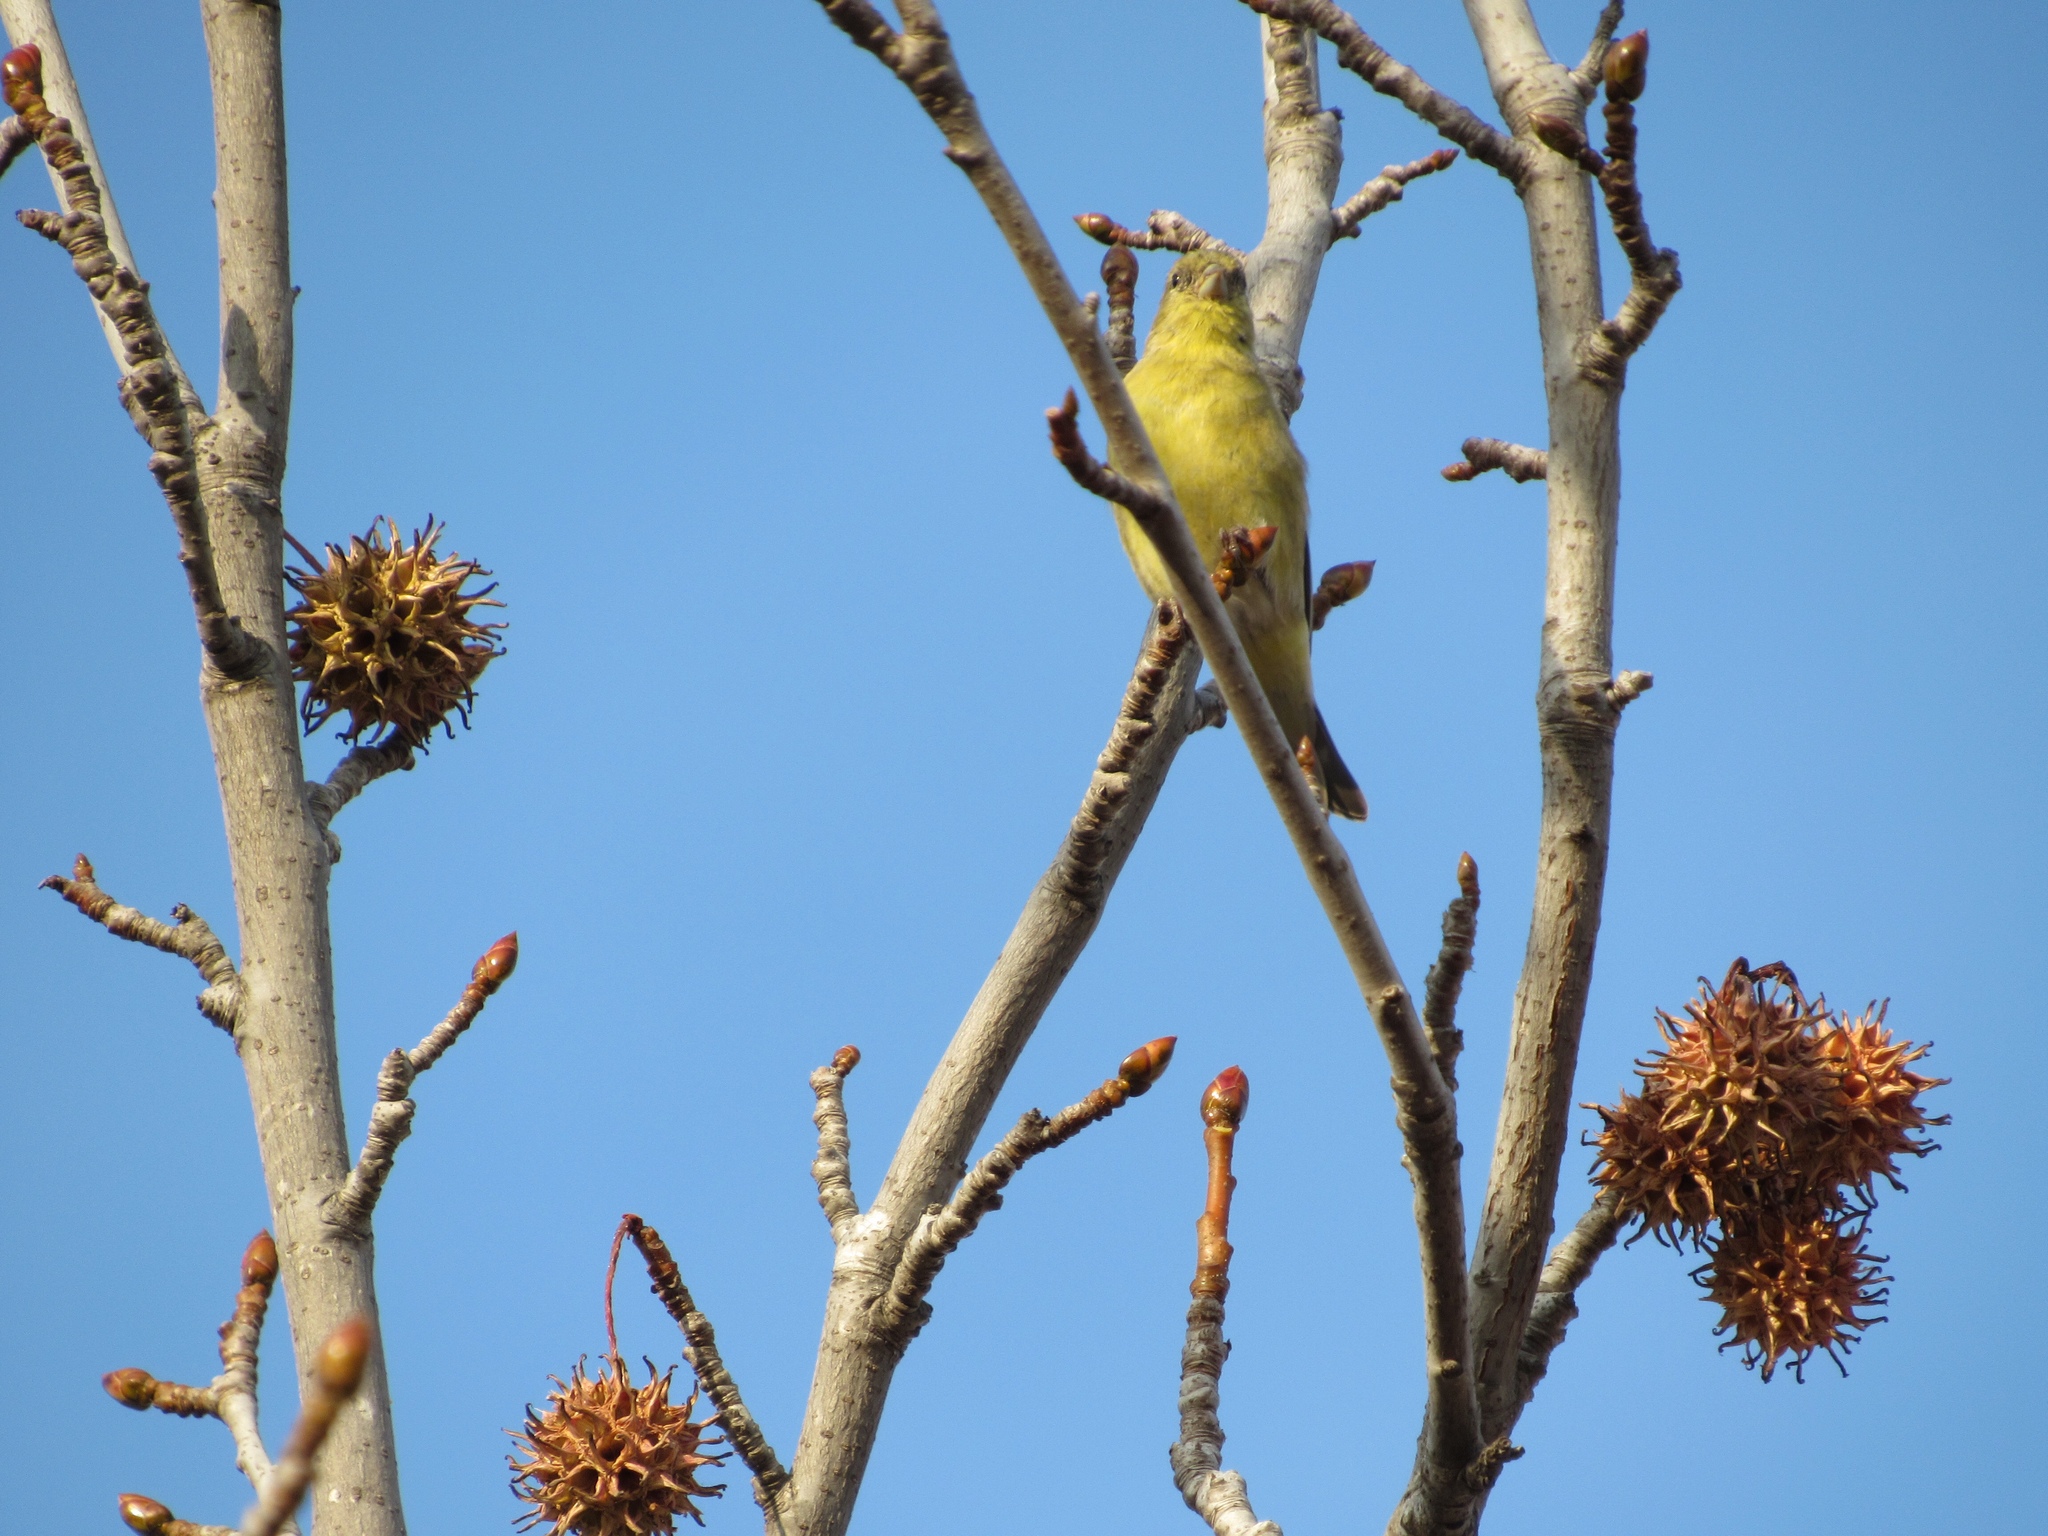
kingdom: Animalia
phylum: Chordata
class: Aves
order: Passeriformes
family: Fringillidae
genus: Spinus
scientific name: Spinus psaltria
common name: Lesser goldfinch
